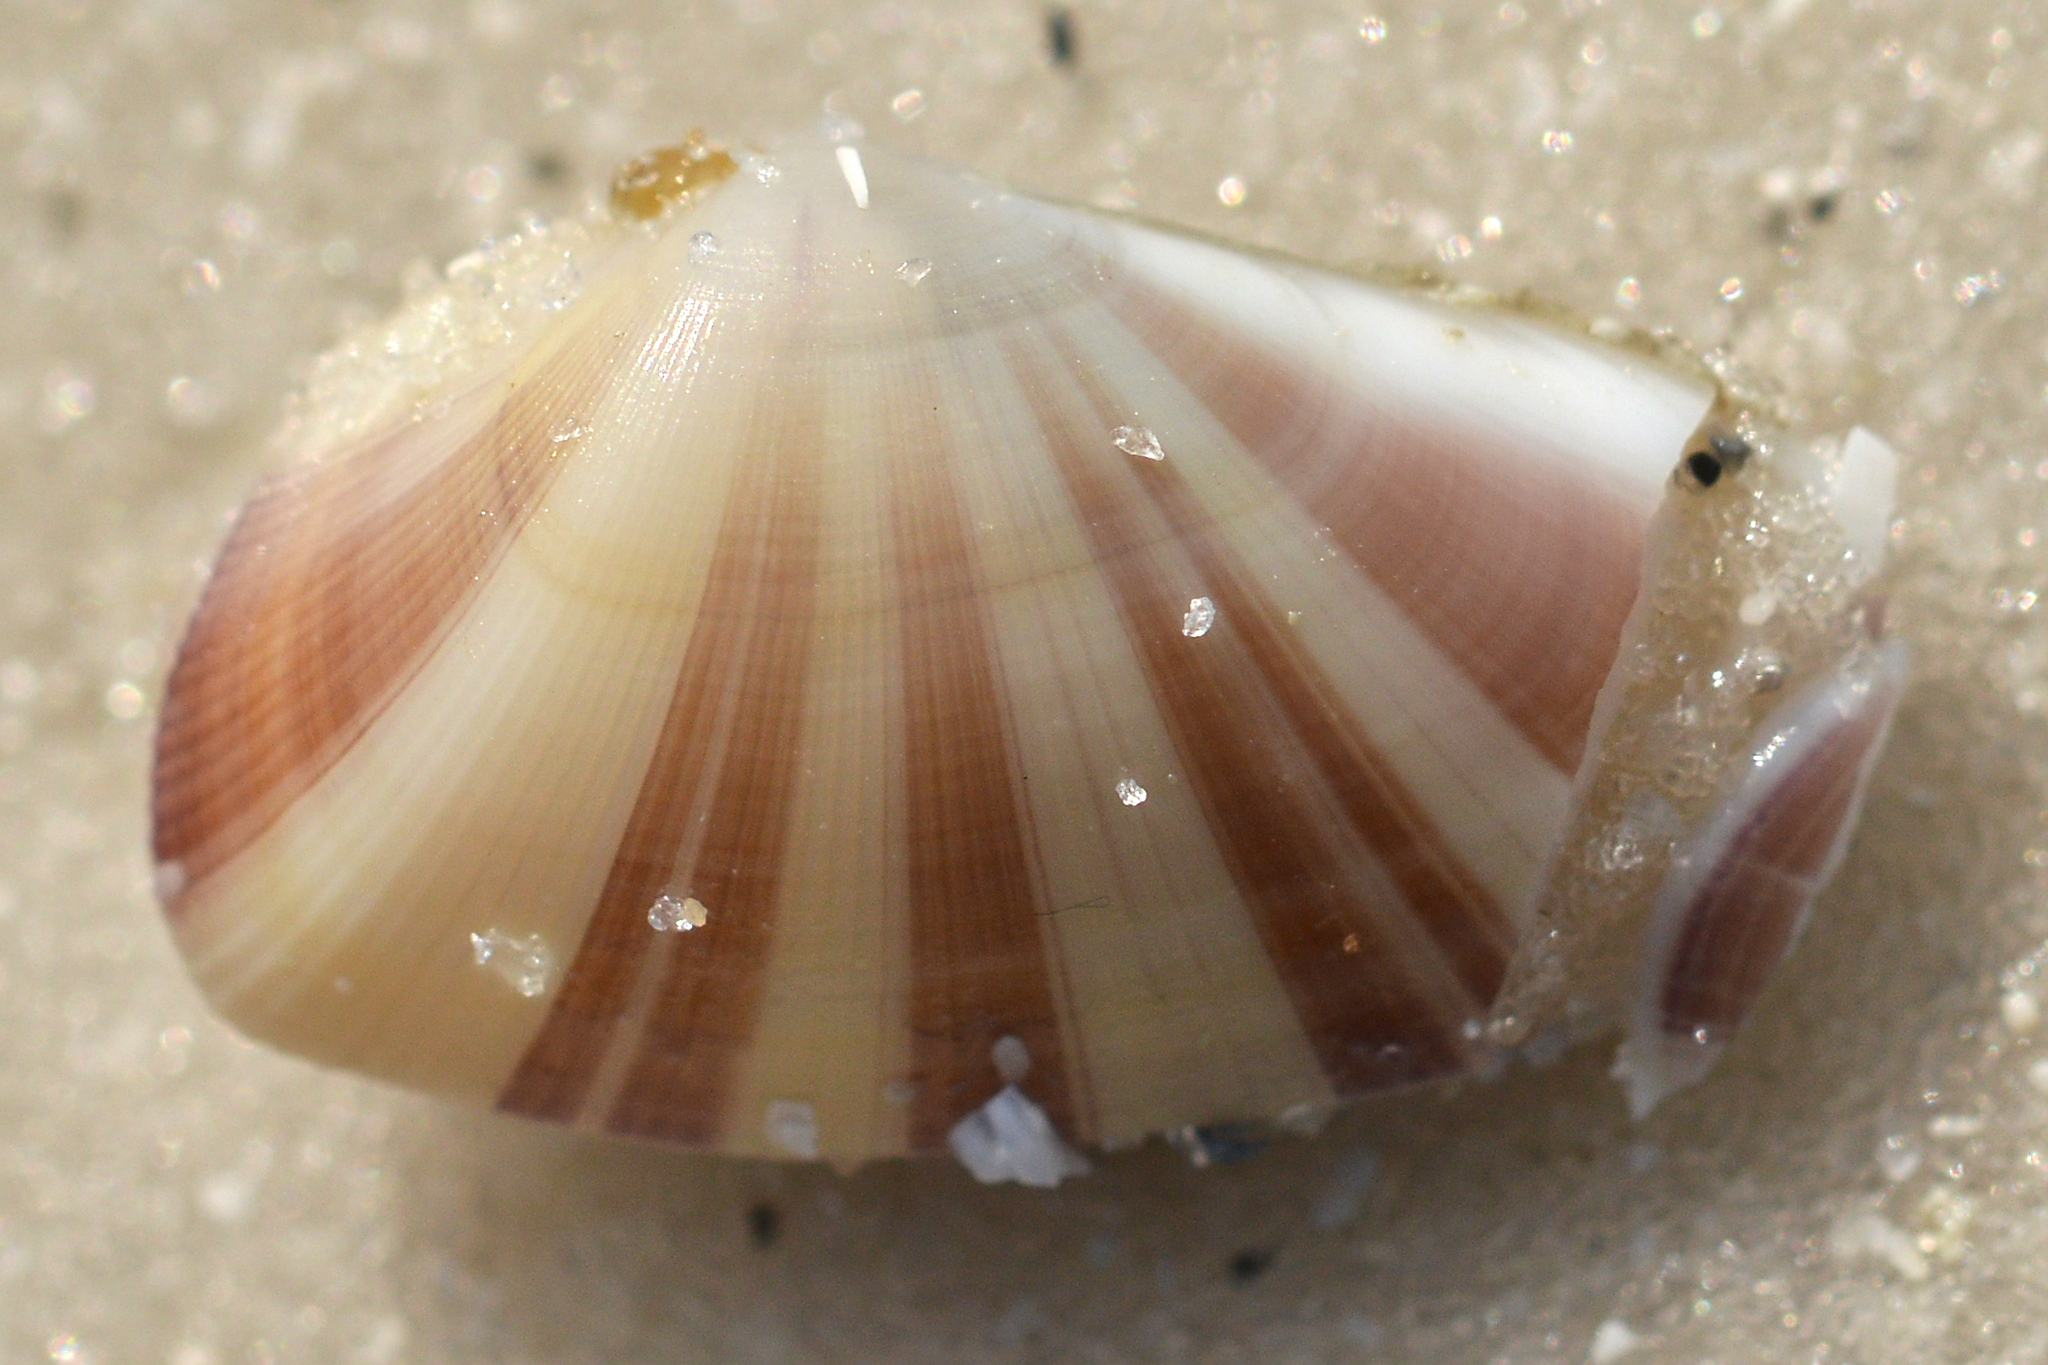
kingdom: Animalia
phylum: Mollusca
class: Bivalvia
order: Cardiida
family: Donacidae
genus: Donax
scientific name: Donax variabilis
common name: Butterfly shell
